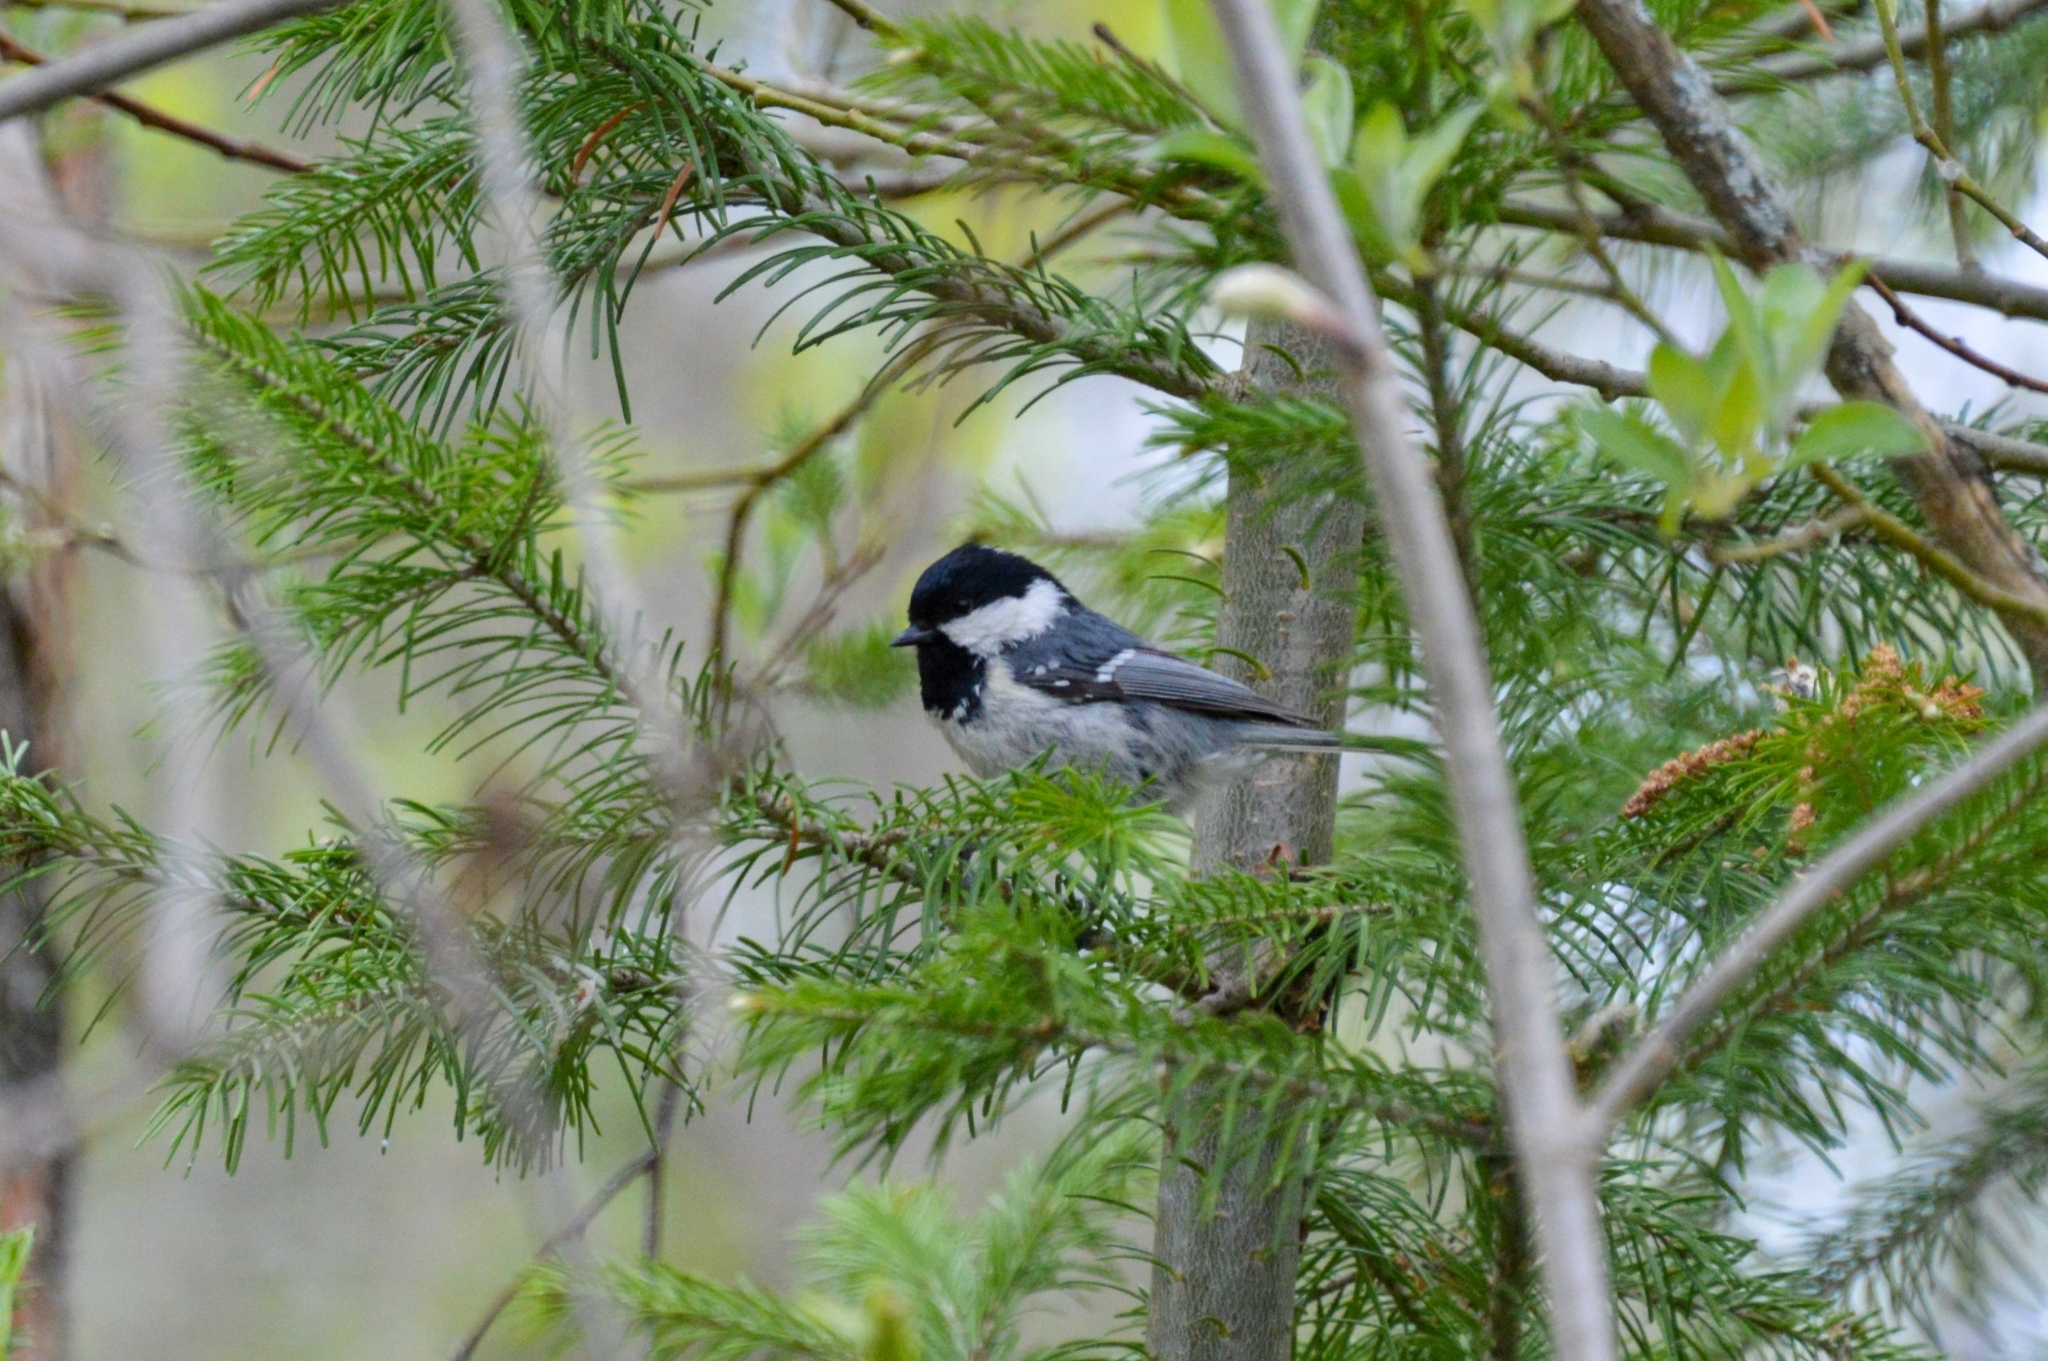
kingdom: Animalia
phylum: Chordata
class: Aves
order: Passeriformes
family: Paridae
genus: Periparus
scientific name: Periparus ater
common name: Coal tit
